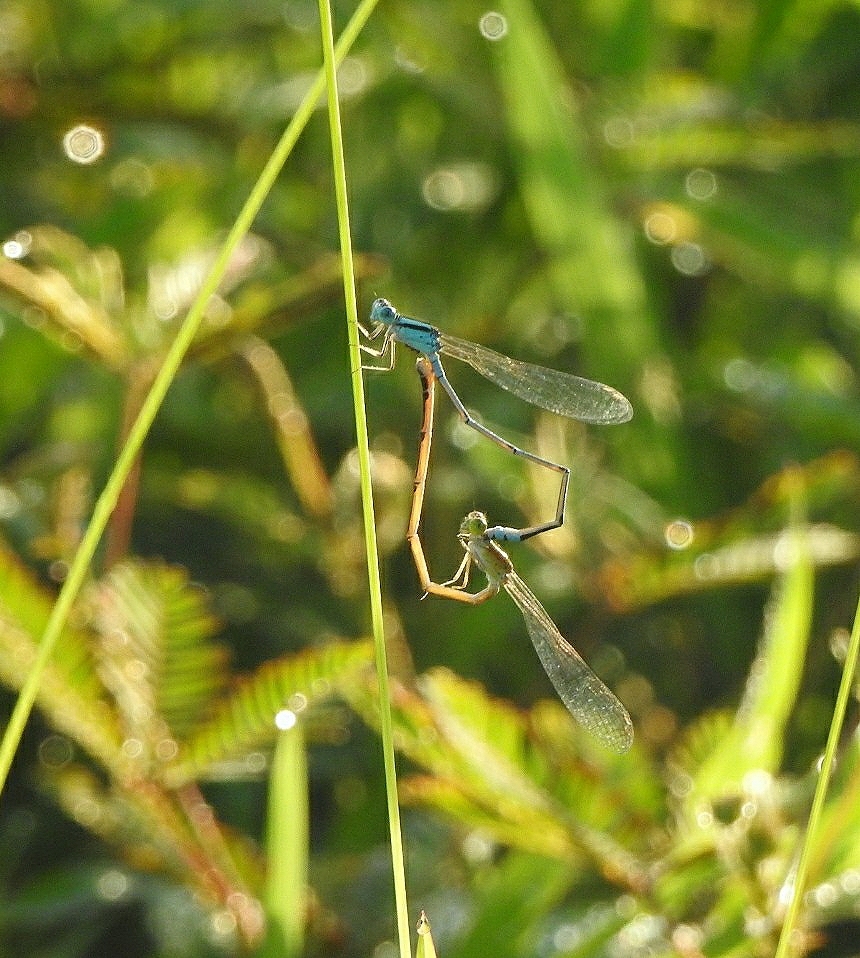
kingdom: Animalia
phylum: Arthropoda
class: Insecta
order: Odonata
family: Coenagrionidae
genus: Pseudagrion
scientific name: Pseudagrion microcephalum
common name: Blue riverdamsel
